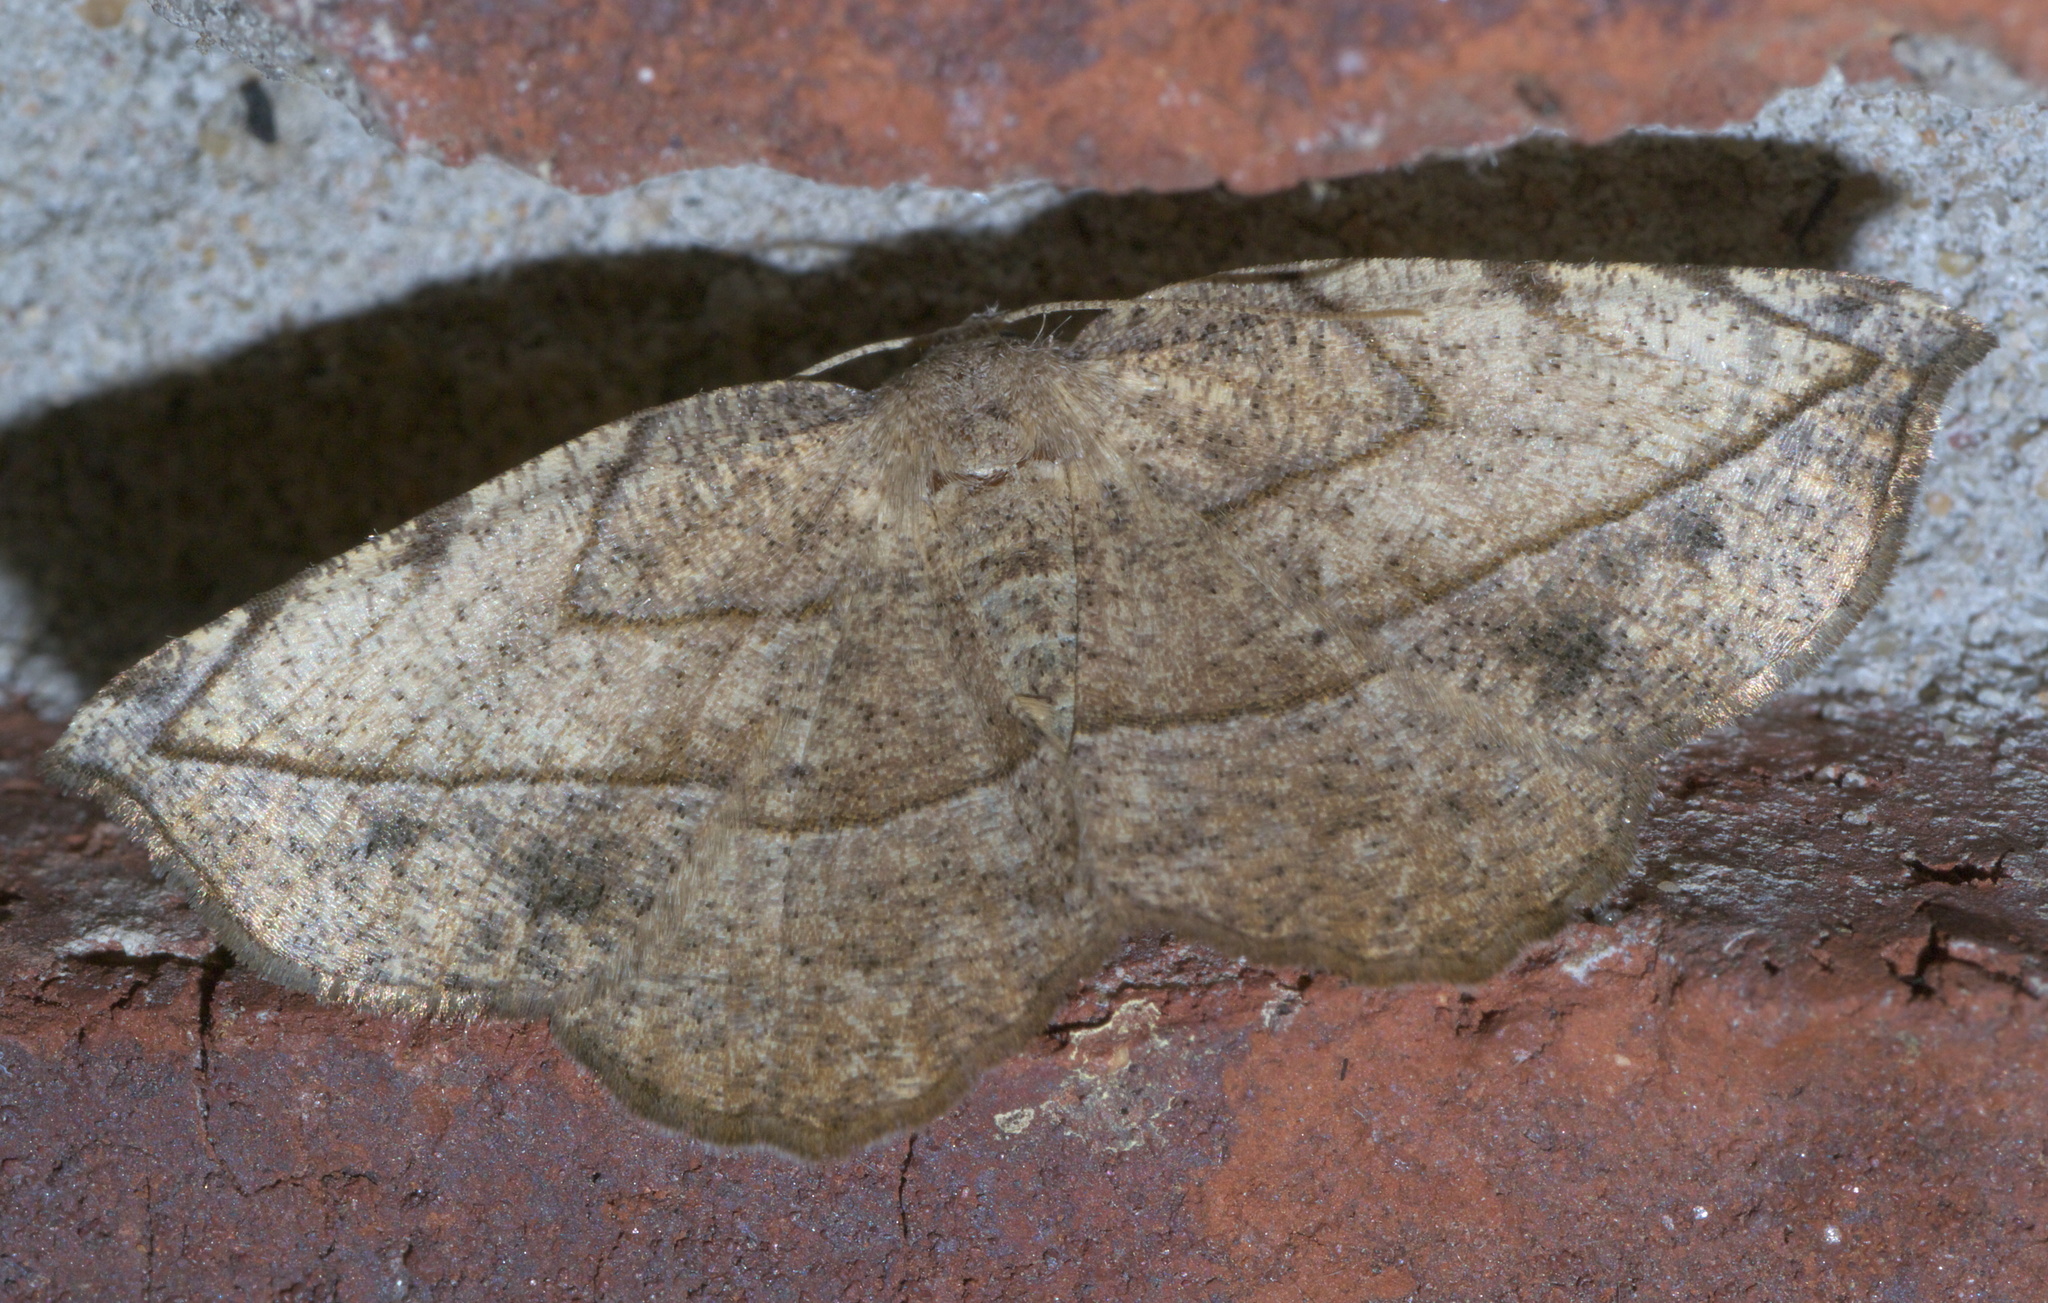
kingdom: Animalia
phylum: Arthropoda
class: Insecta
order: Lepidoptera
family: Geometridae
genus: Eusarca
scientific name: Eusarca packardaria
